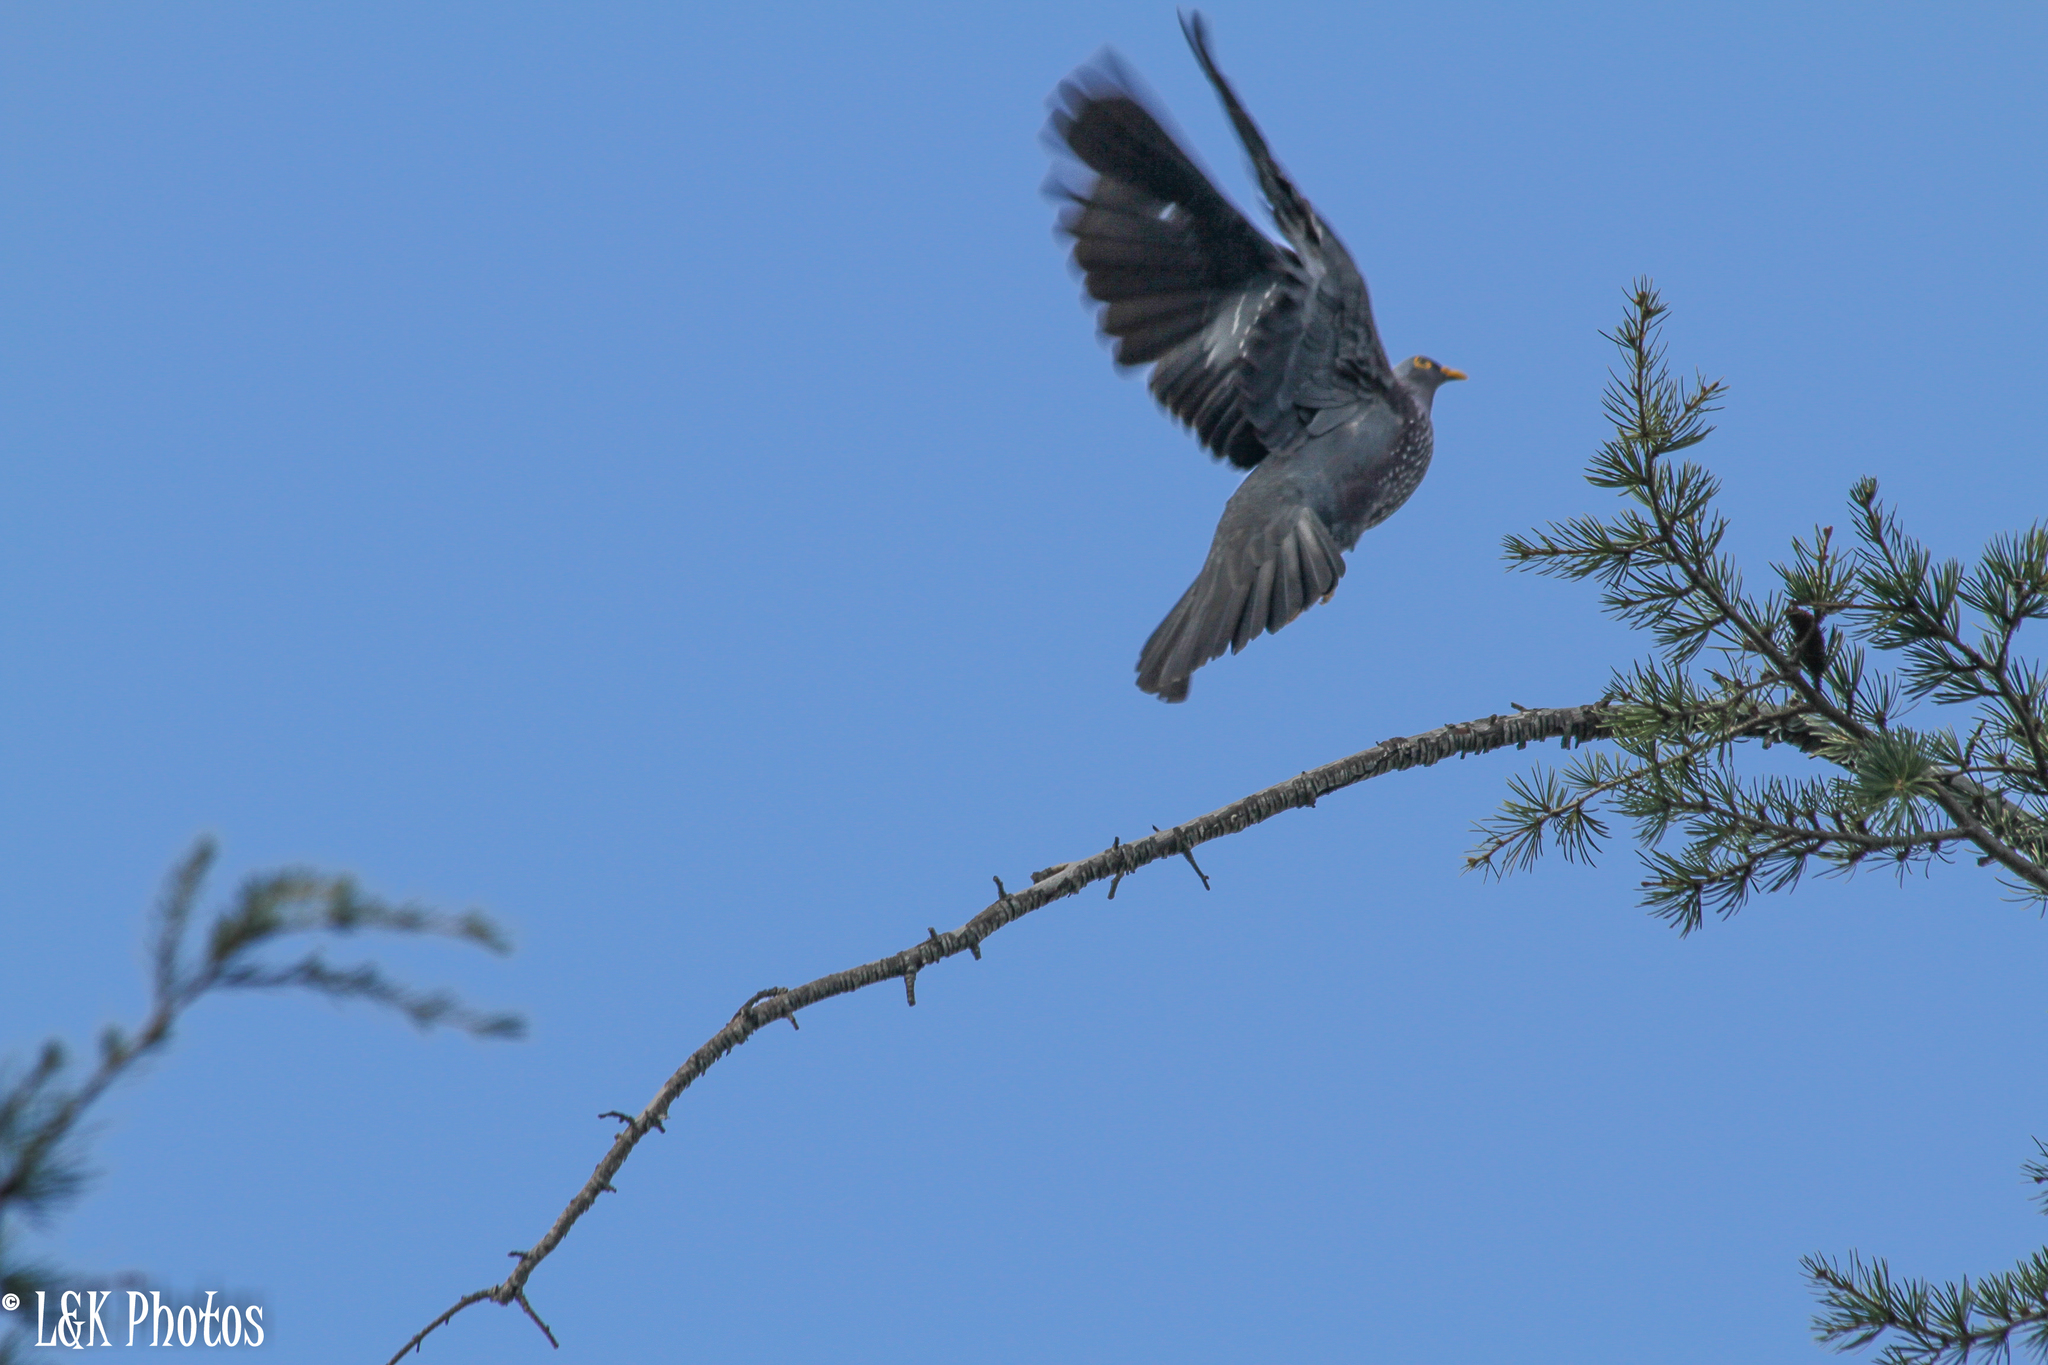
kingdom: Animalia
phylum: Chordata
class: Aves
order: Columbiformes
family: Columbidae
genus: Columba
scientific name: Columba arquatrix
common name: African olive pigeon
